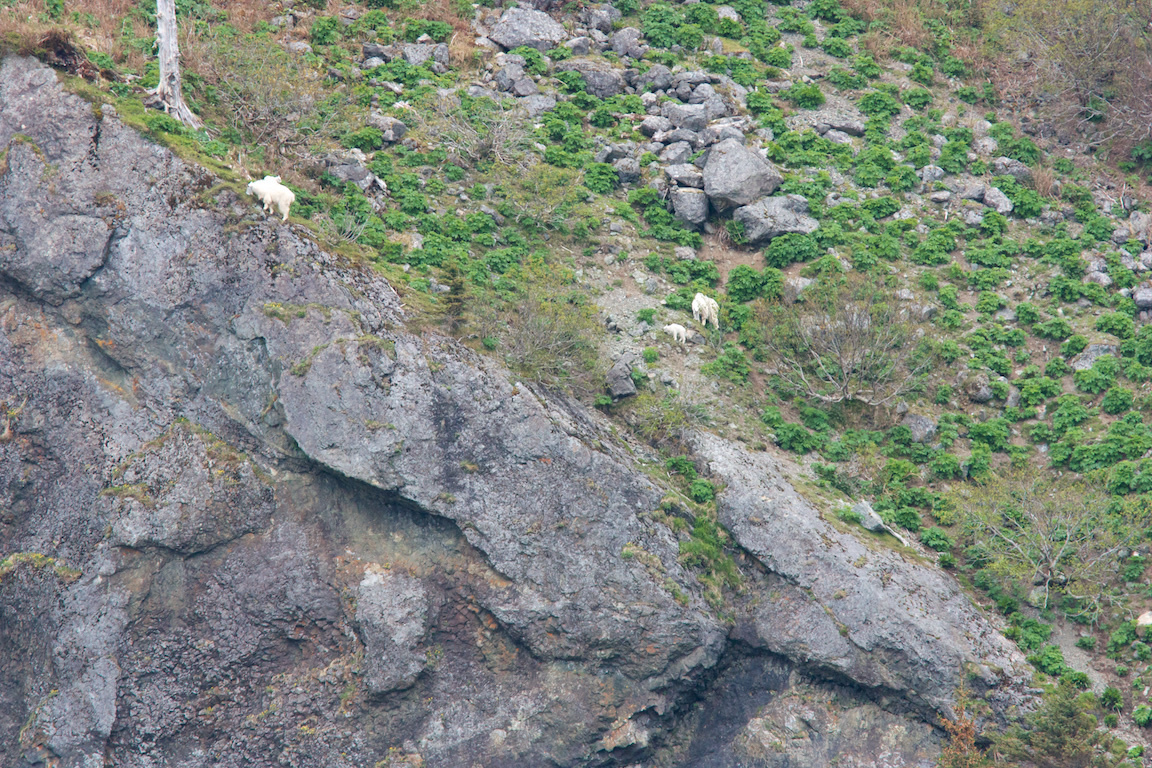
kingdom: Animalia
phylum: Chordata
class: Mammalia
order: Artiodactyla
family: Bovidae
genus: Oreamnos
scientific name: Oreamnos americanus
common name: Mountain goat
